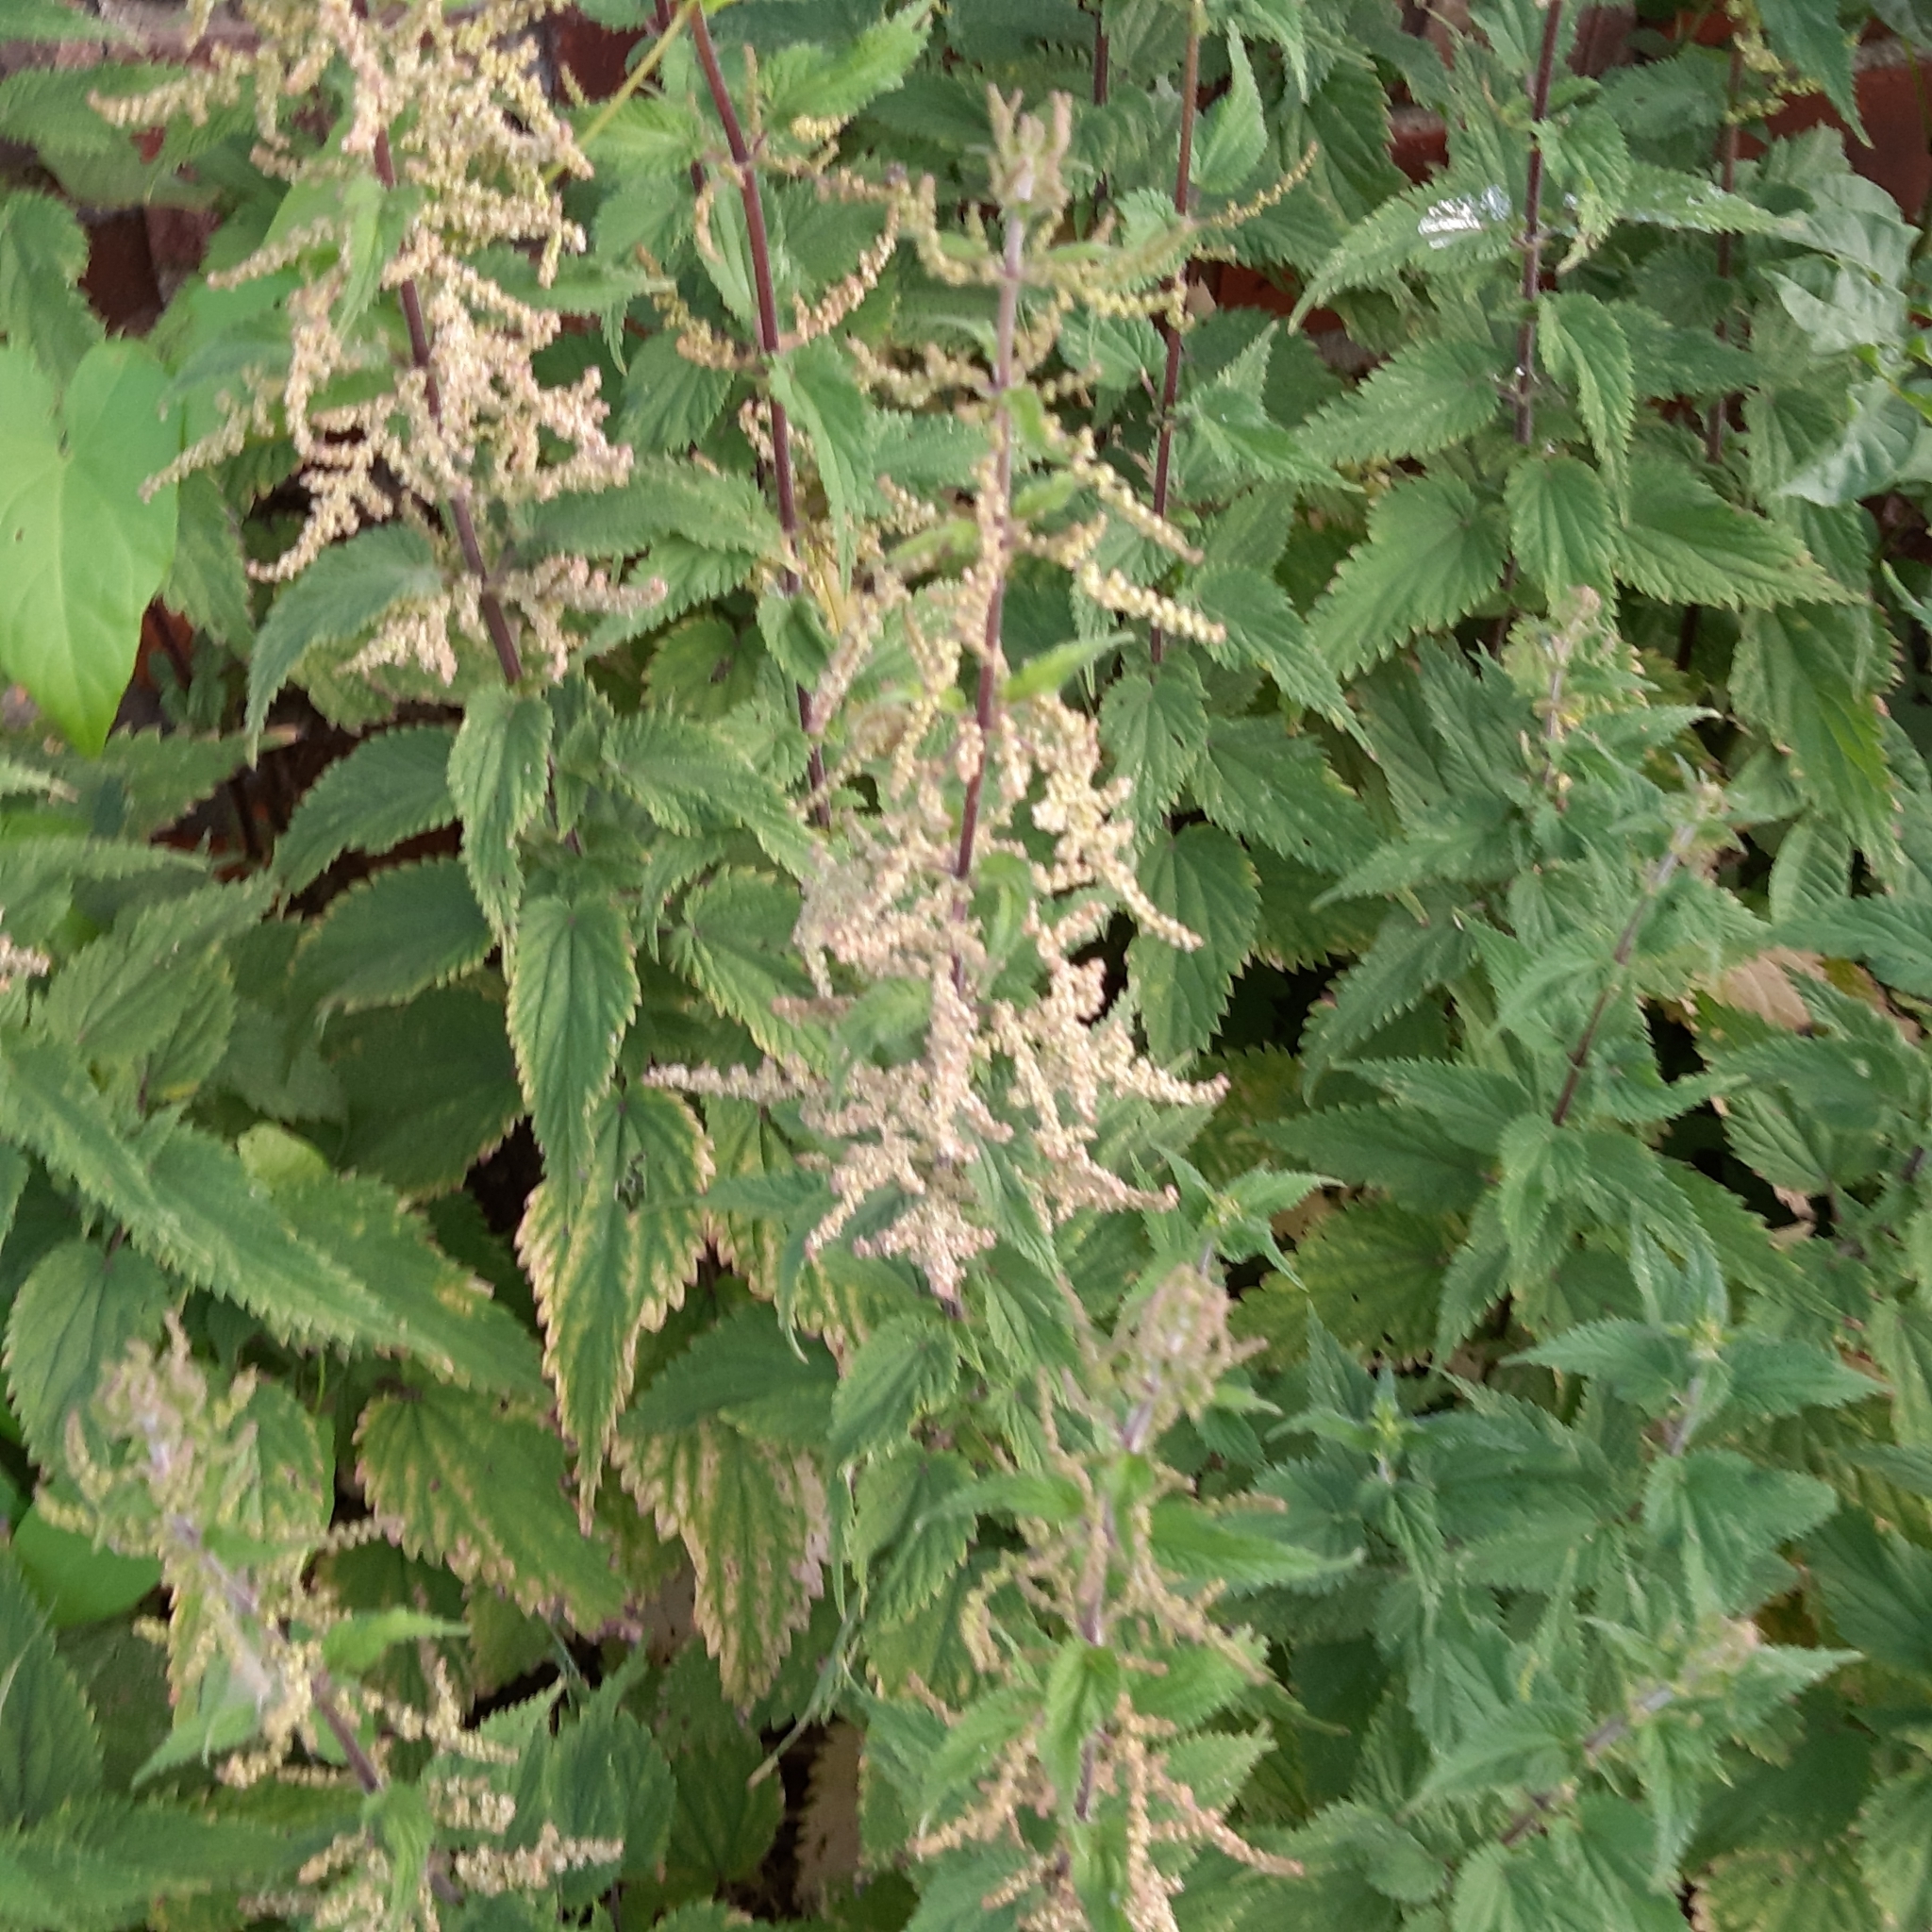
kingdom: Plantae
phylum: Tracheophyta
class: Magnoliopsida
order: Rosales
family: Urticaceae
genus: Urtica
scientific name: Urtica dioica
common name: Common nettle
